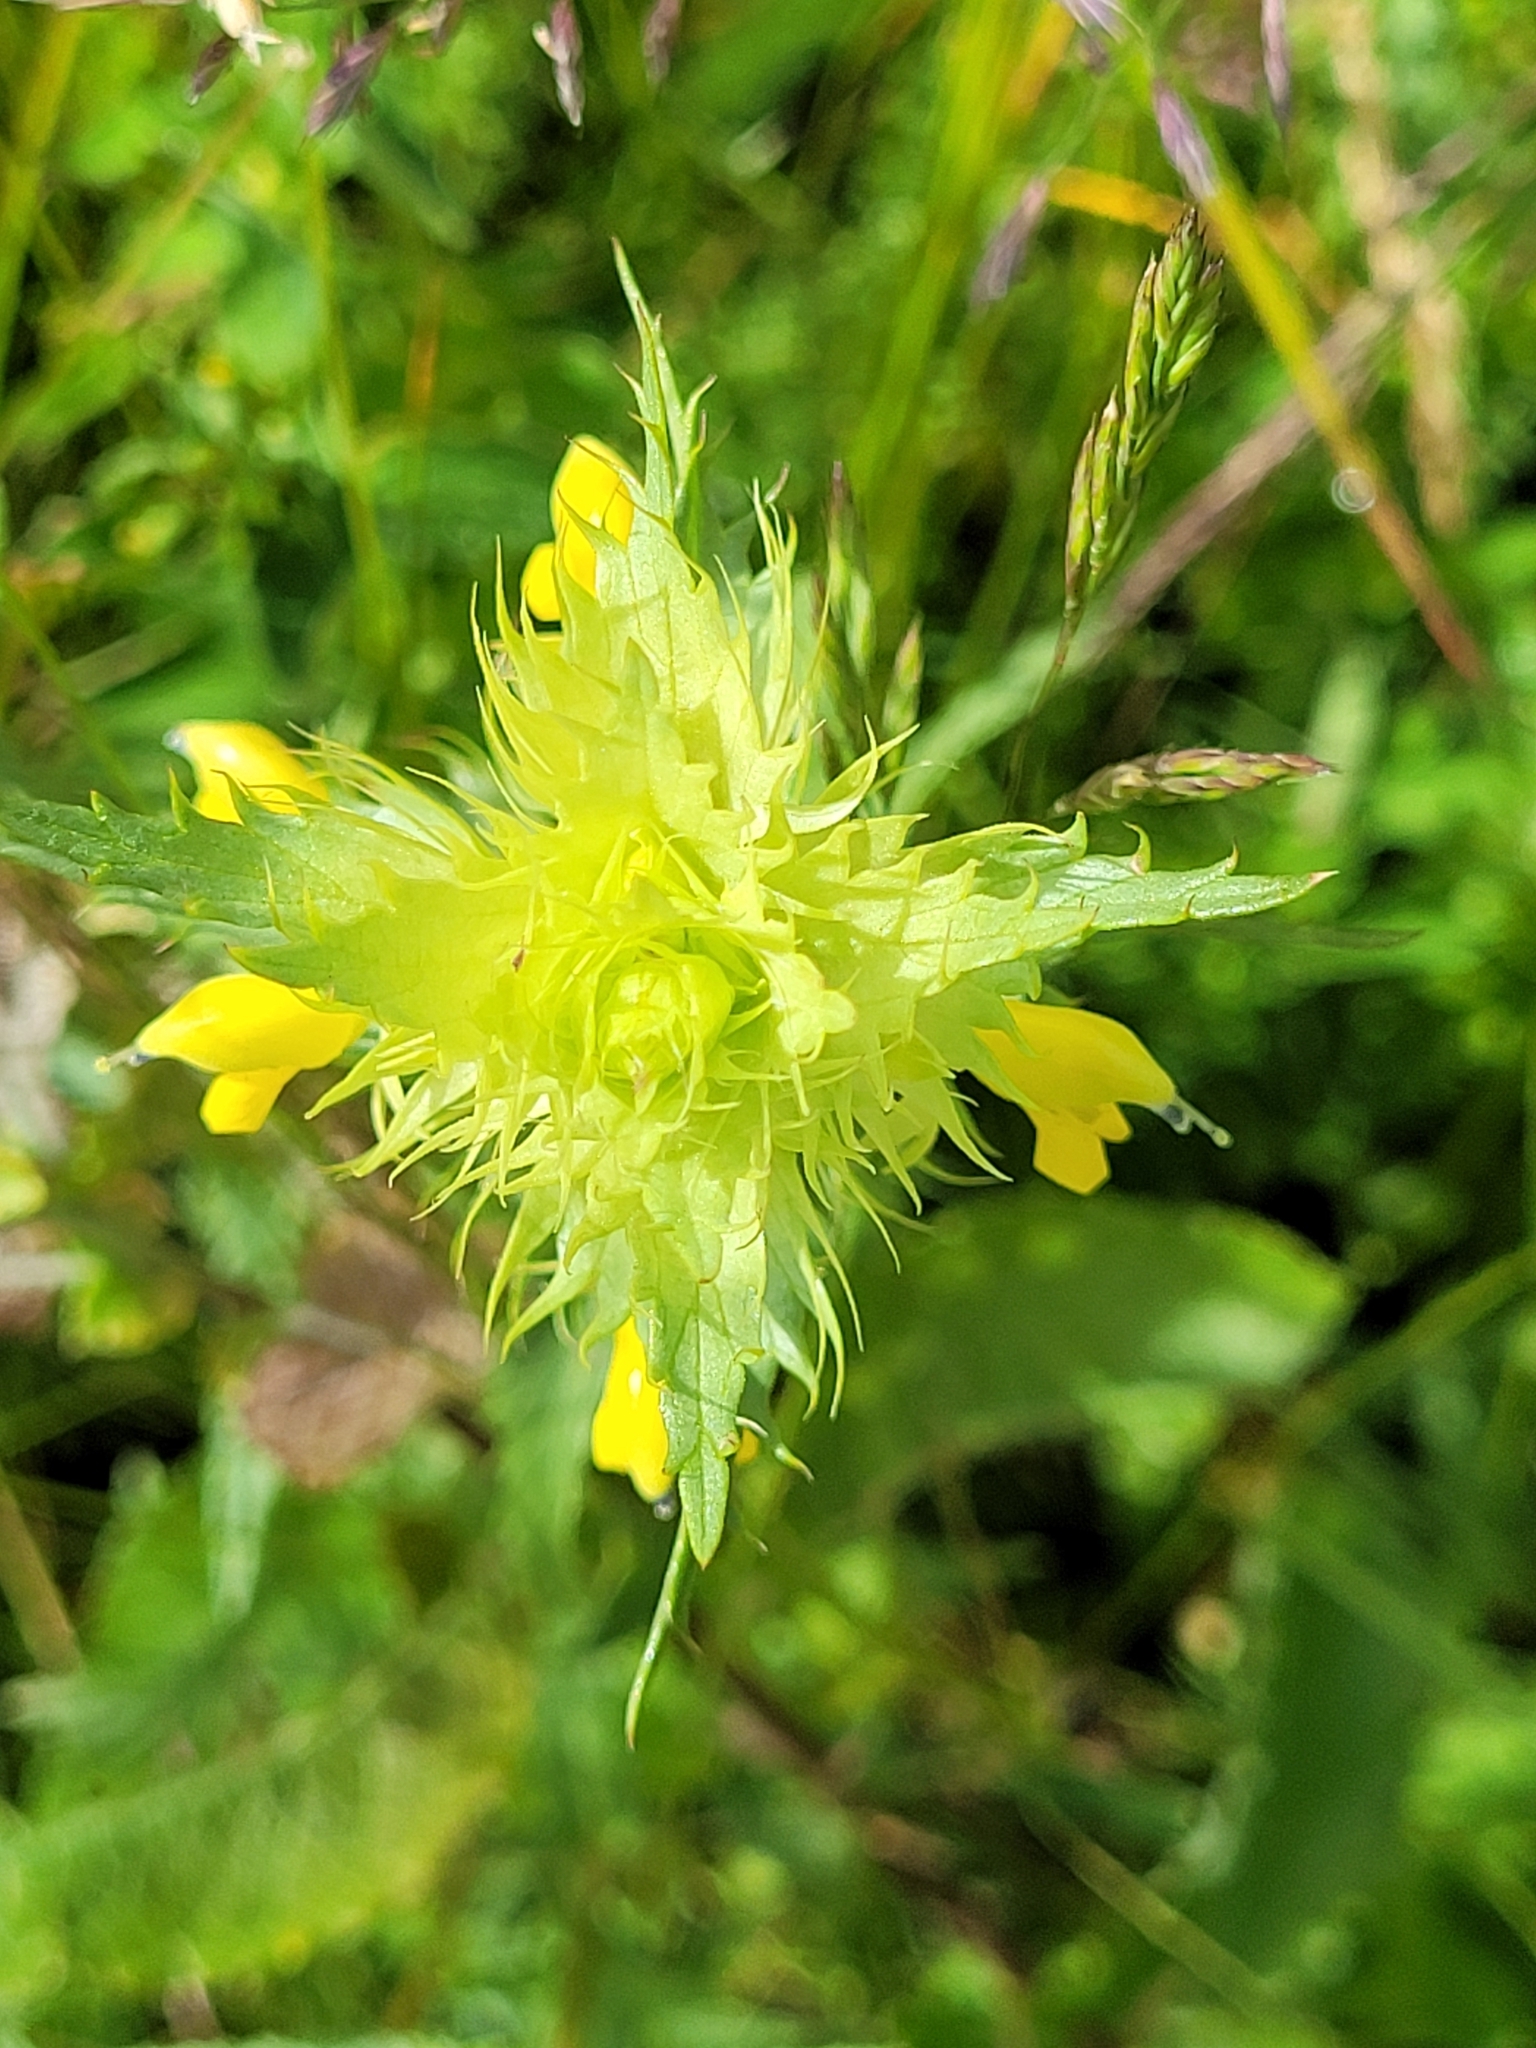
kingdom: Plantae
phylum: Tracheophyta
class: Magnoliopsida
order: Lamiales
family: Orobanchaceae
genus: Rhinanthus
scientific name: Rhinanthus glacialis
